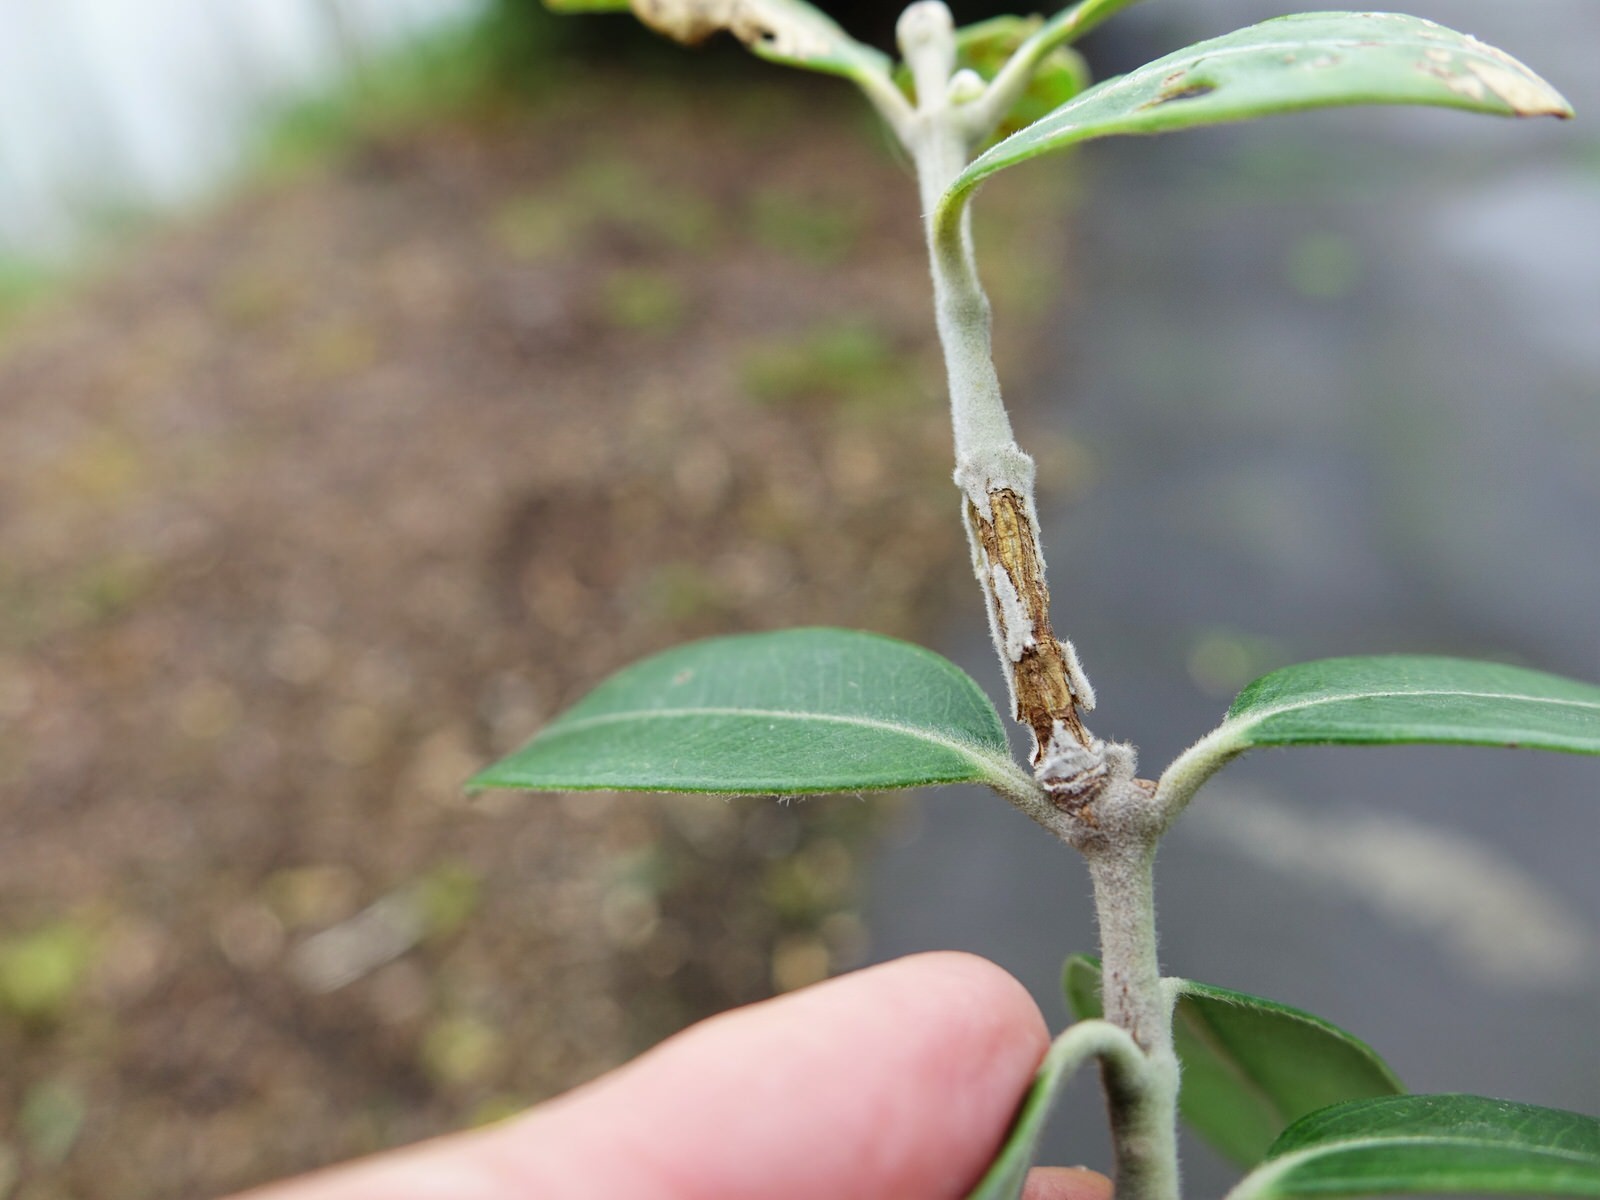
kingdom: Plantae
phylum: Tracheophyta
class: Magnoliopsida
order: Myrtales
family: Myrtaceae
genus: Metrosideros
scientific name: Metrosideros excelsa
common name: New zealand christmastree
